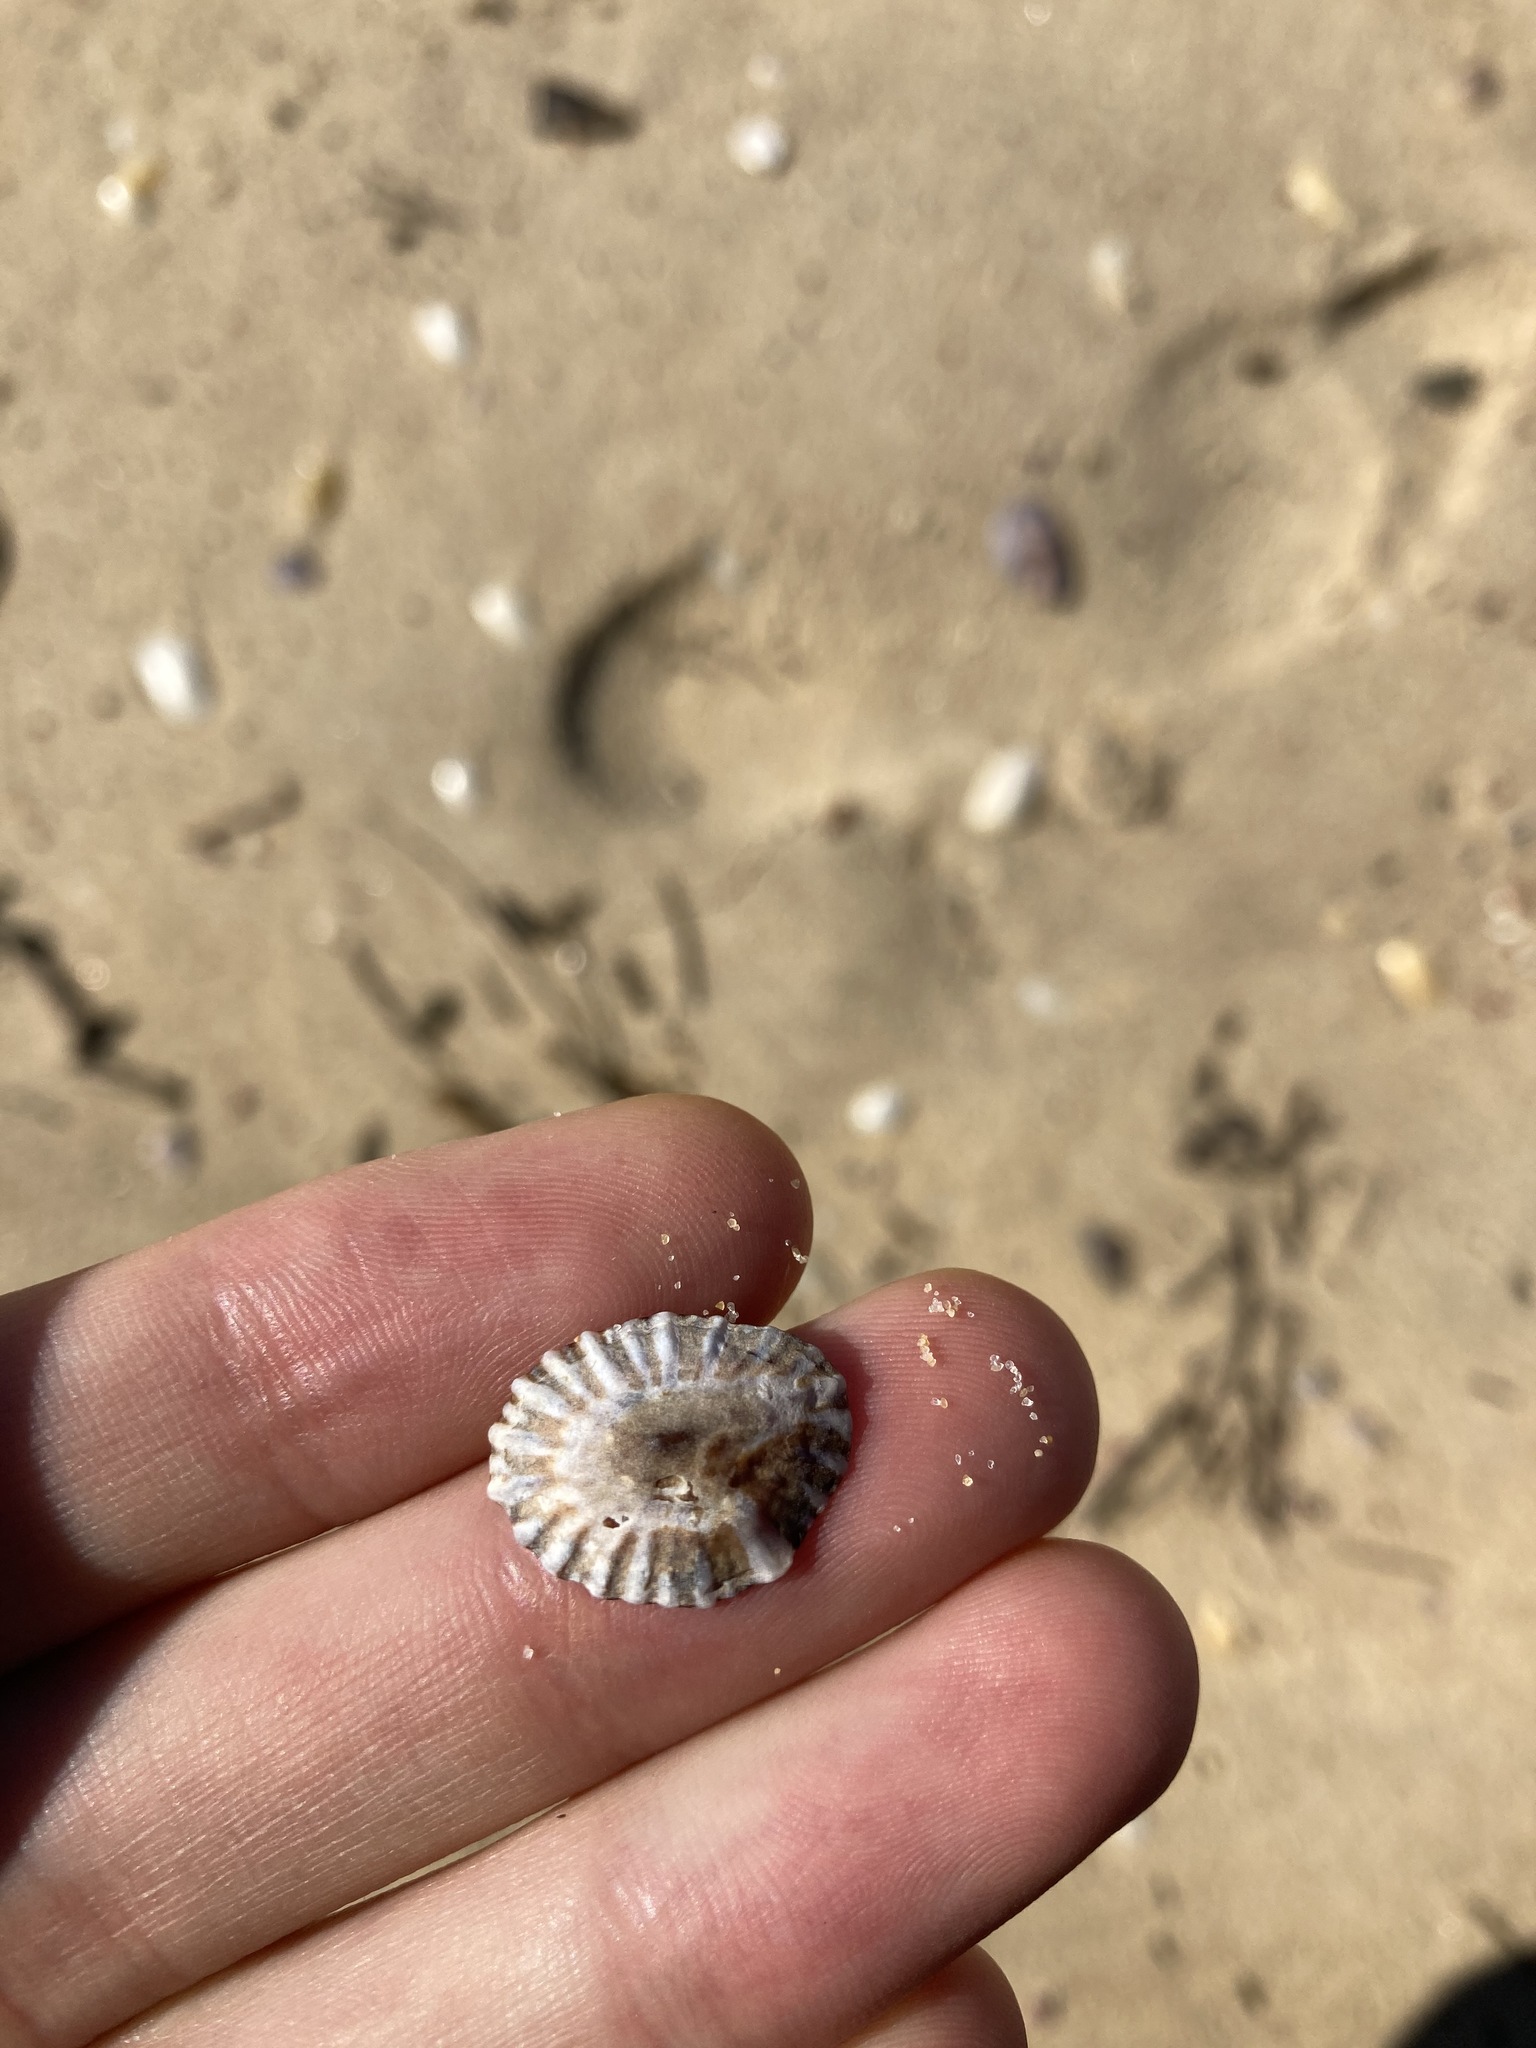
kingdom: Animalia
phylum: Mollusca
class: Gastropoda
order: Siphonariida
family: Siphonariidae
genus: Siphonaria
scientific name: Siphonaria denticulata
